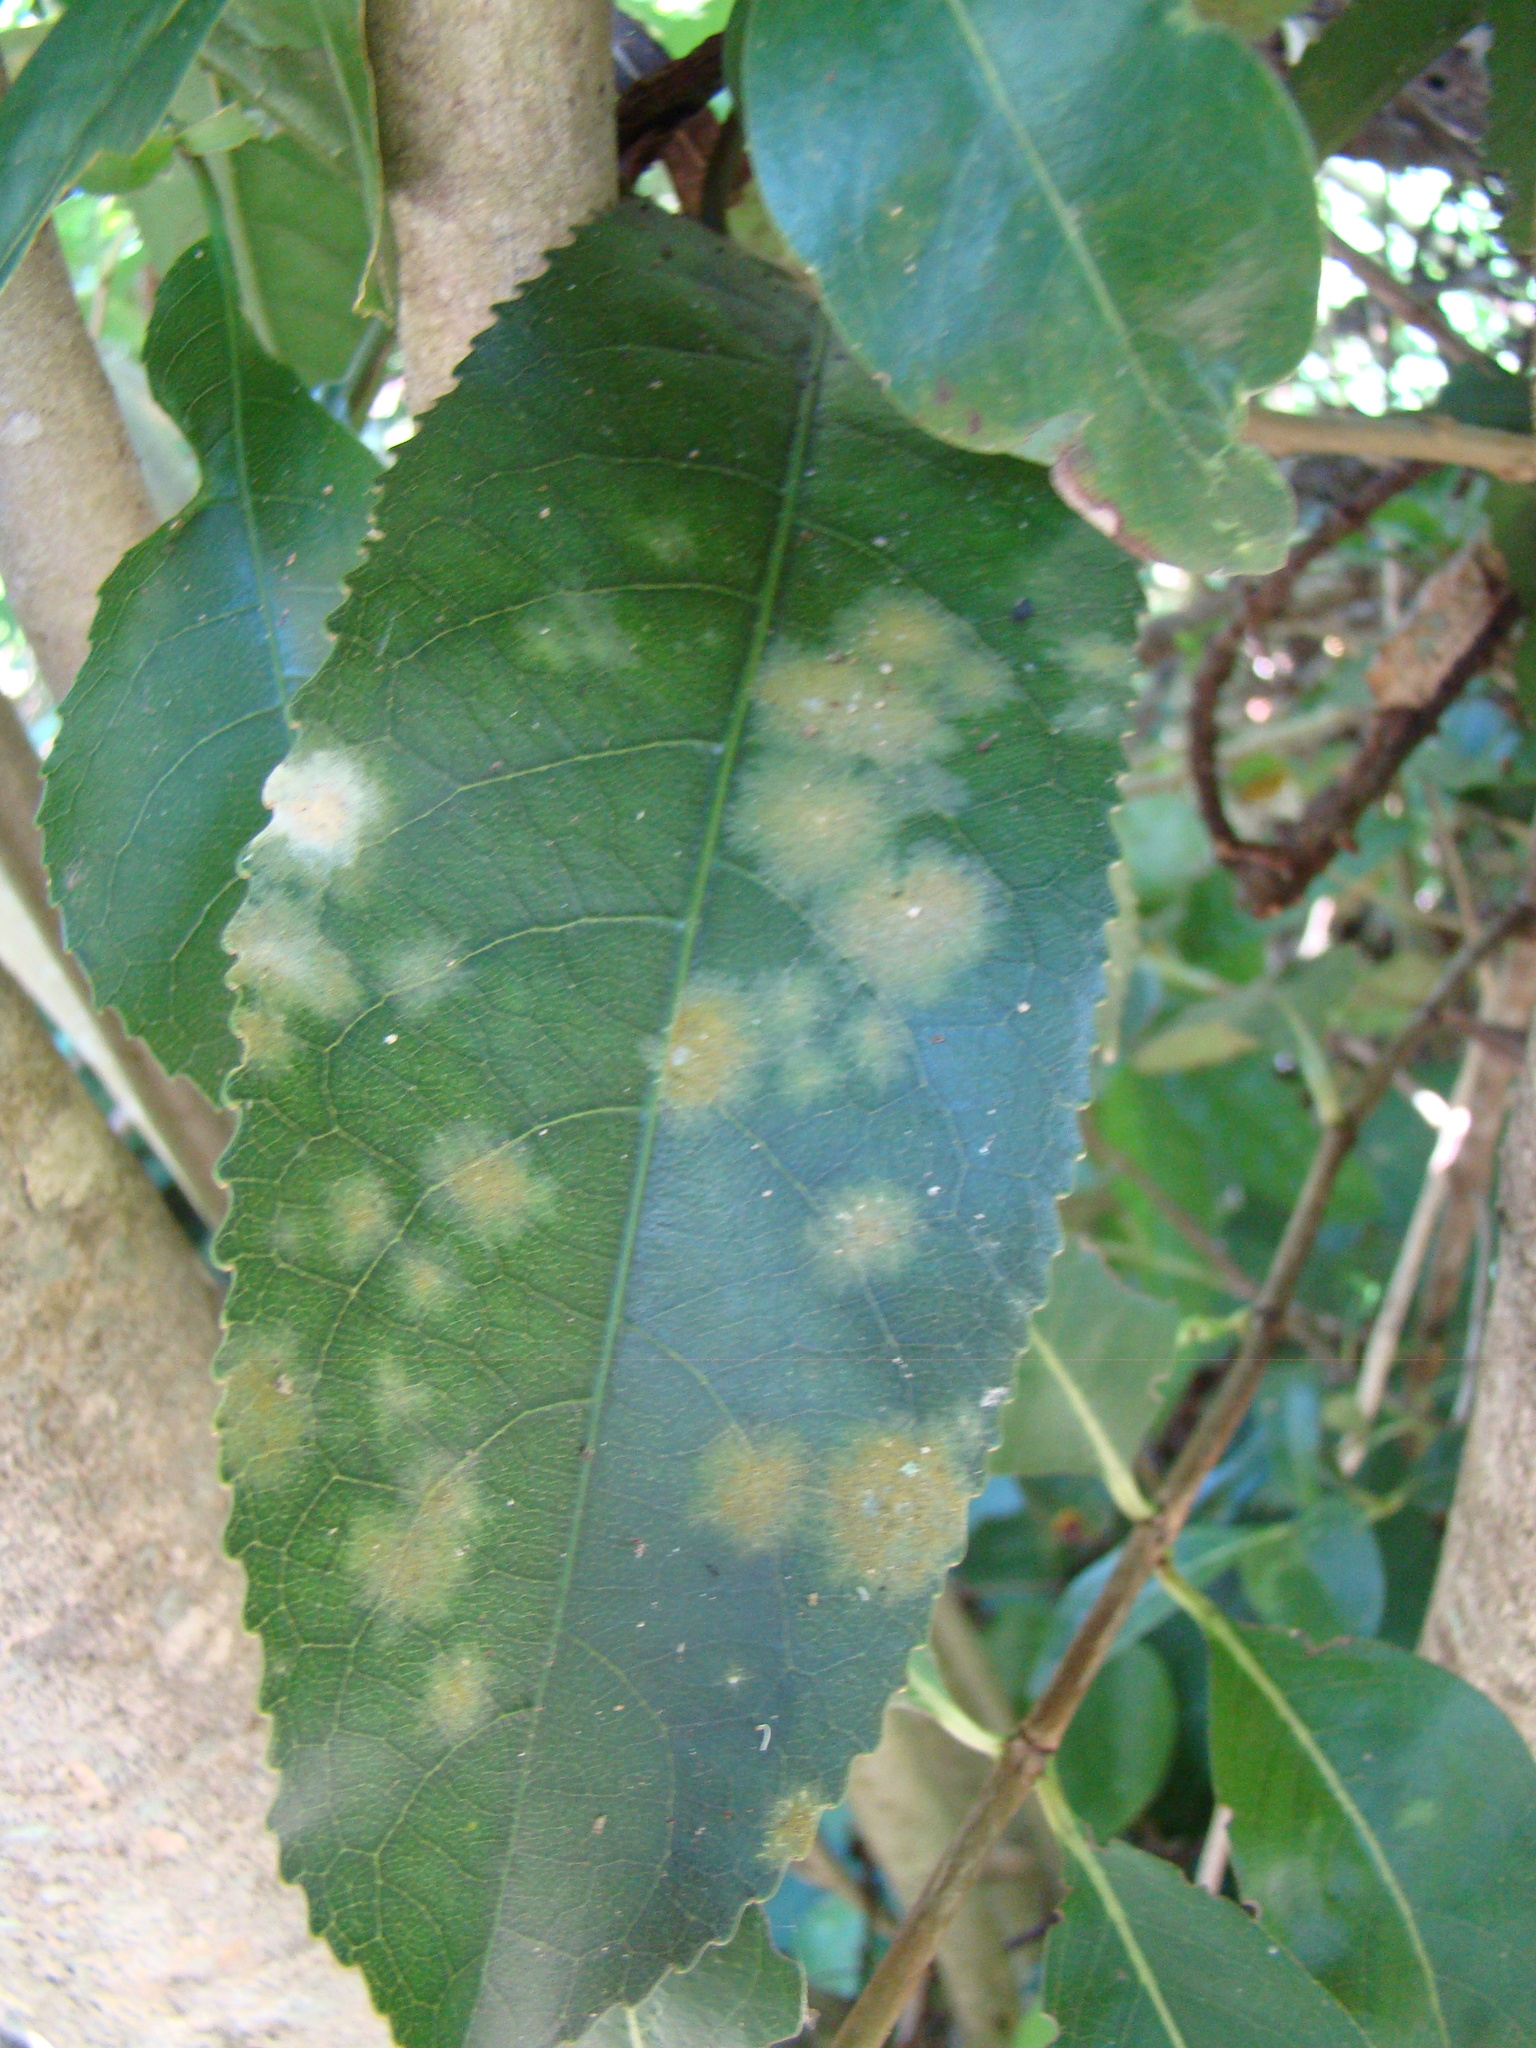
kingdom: Plantae
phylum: Chlorophyta
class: Ulvophyceae
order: Trentepohliales
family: Trentepohliaceae
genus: Cephaleuros
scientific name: Cephaleuros
